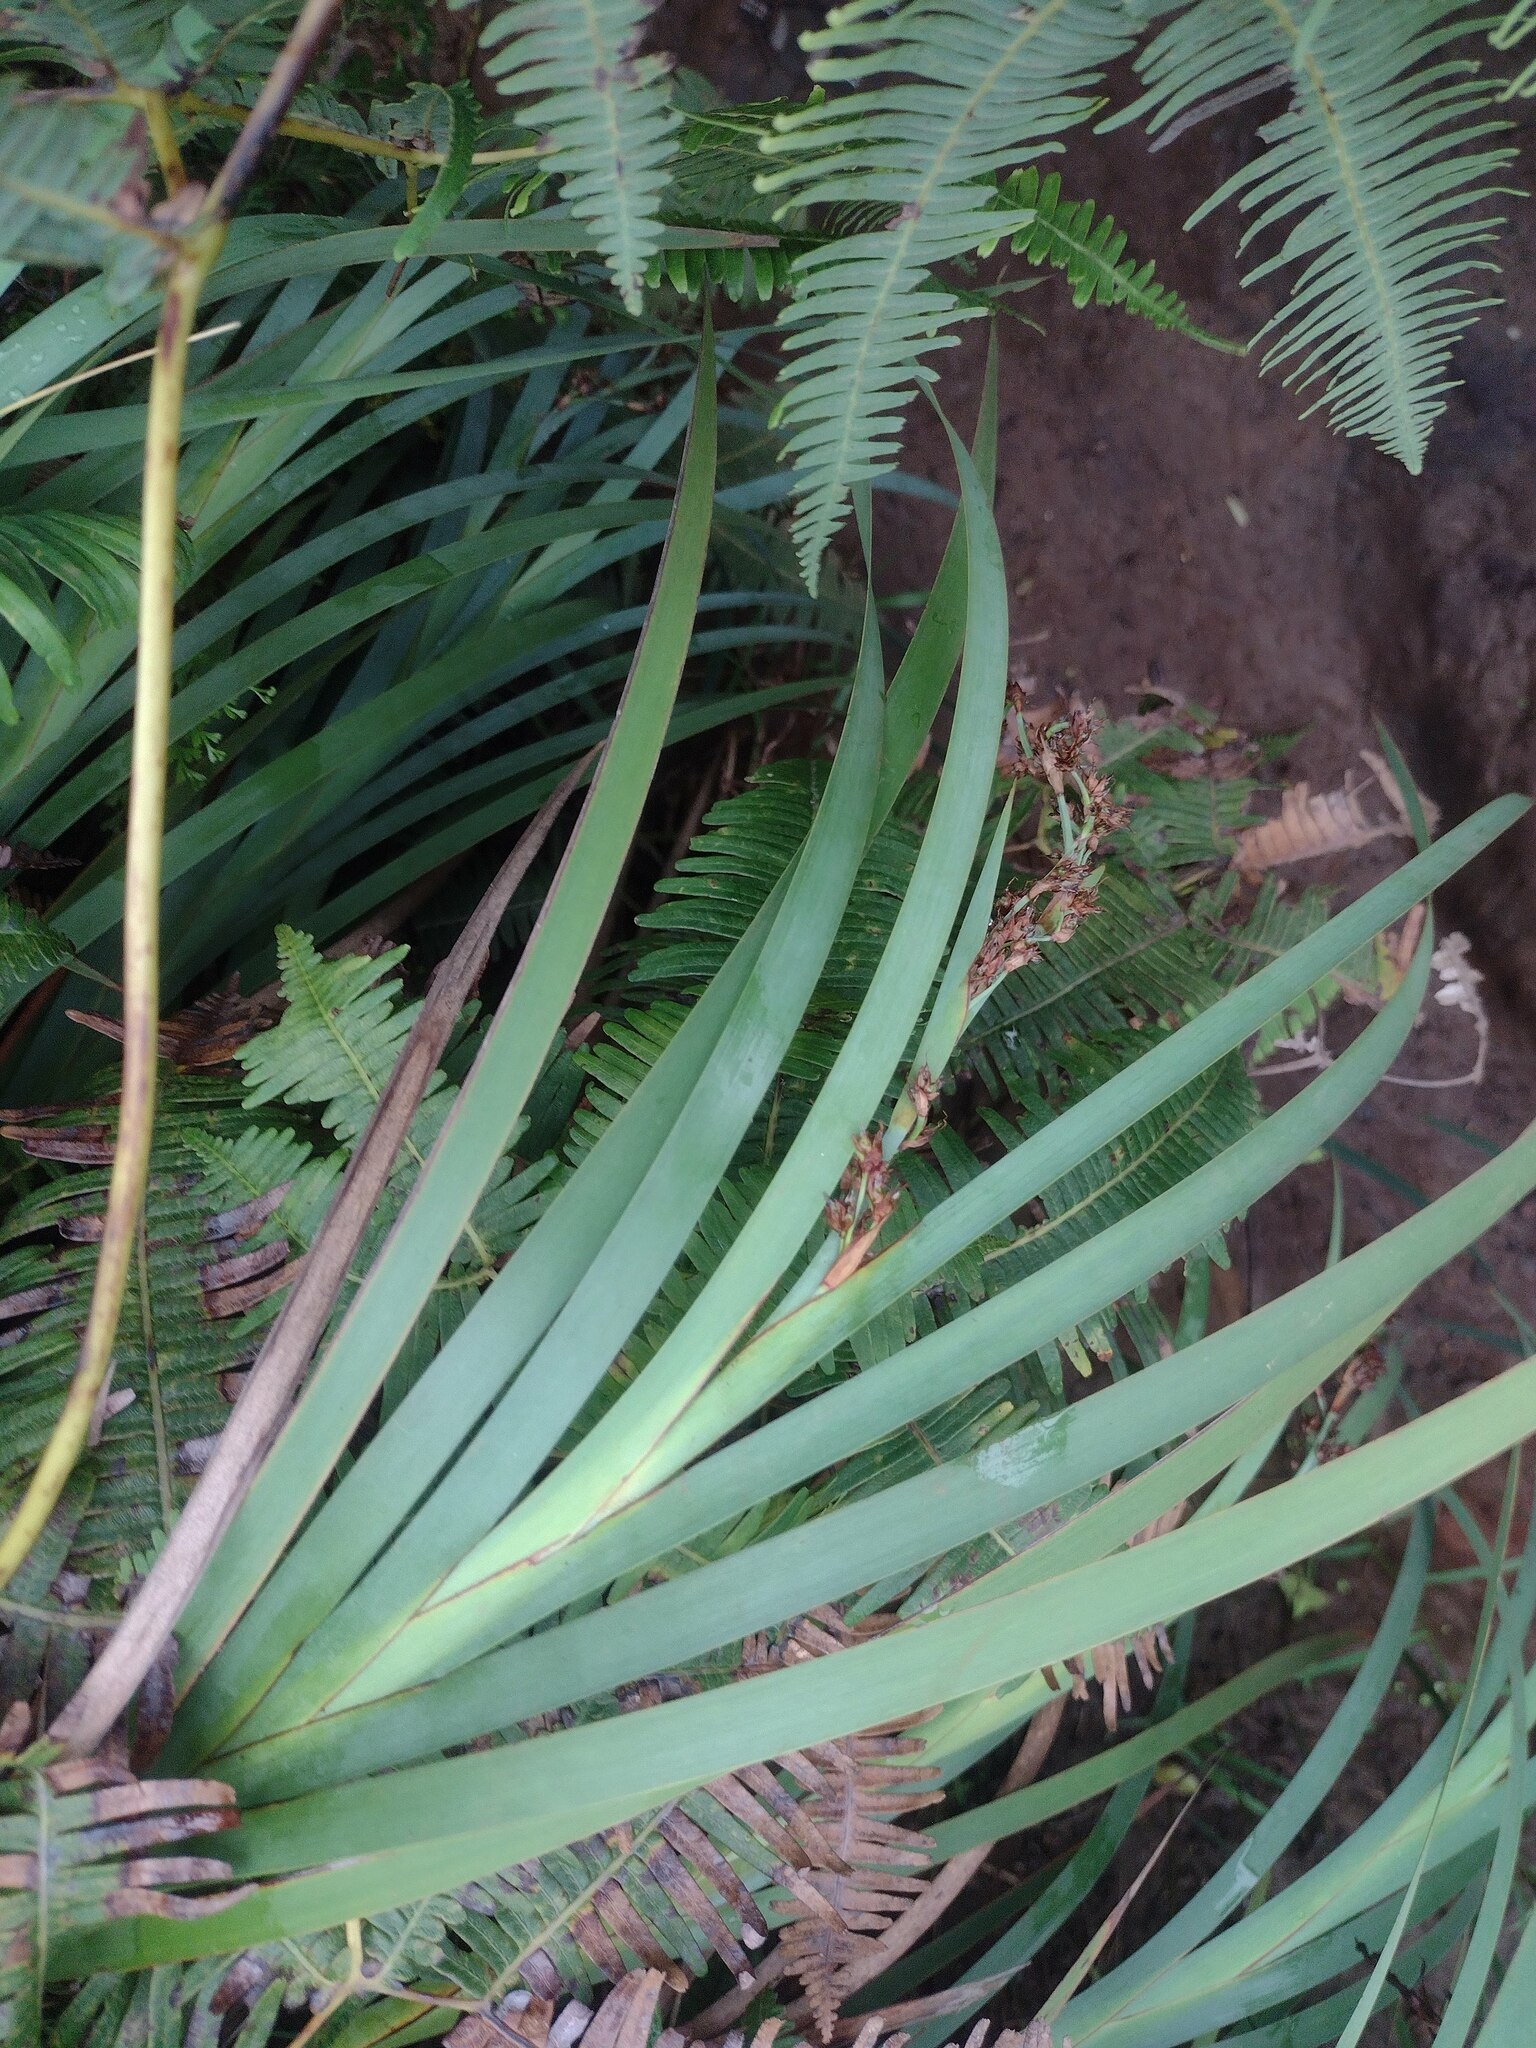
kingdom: Plantae
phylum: Tracheophyta
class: Liliopsida
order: Poales
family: Cyperaceae
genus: Machaerina
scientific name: Machaerina mariscoides
